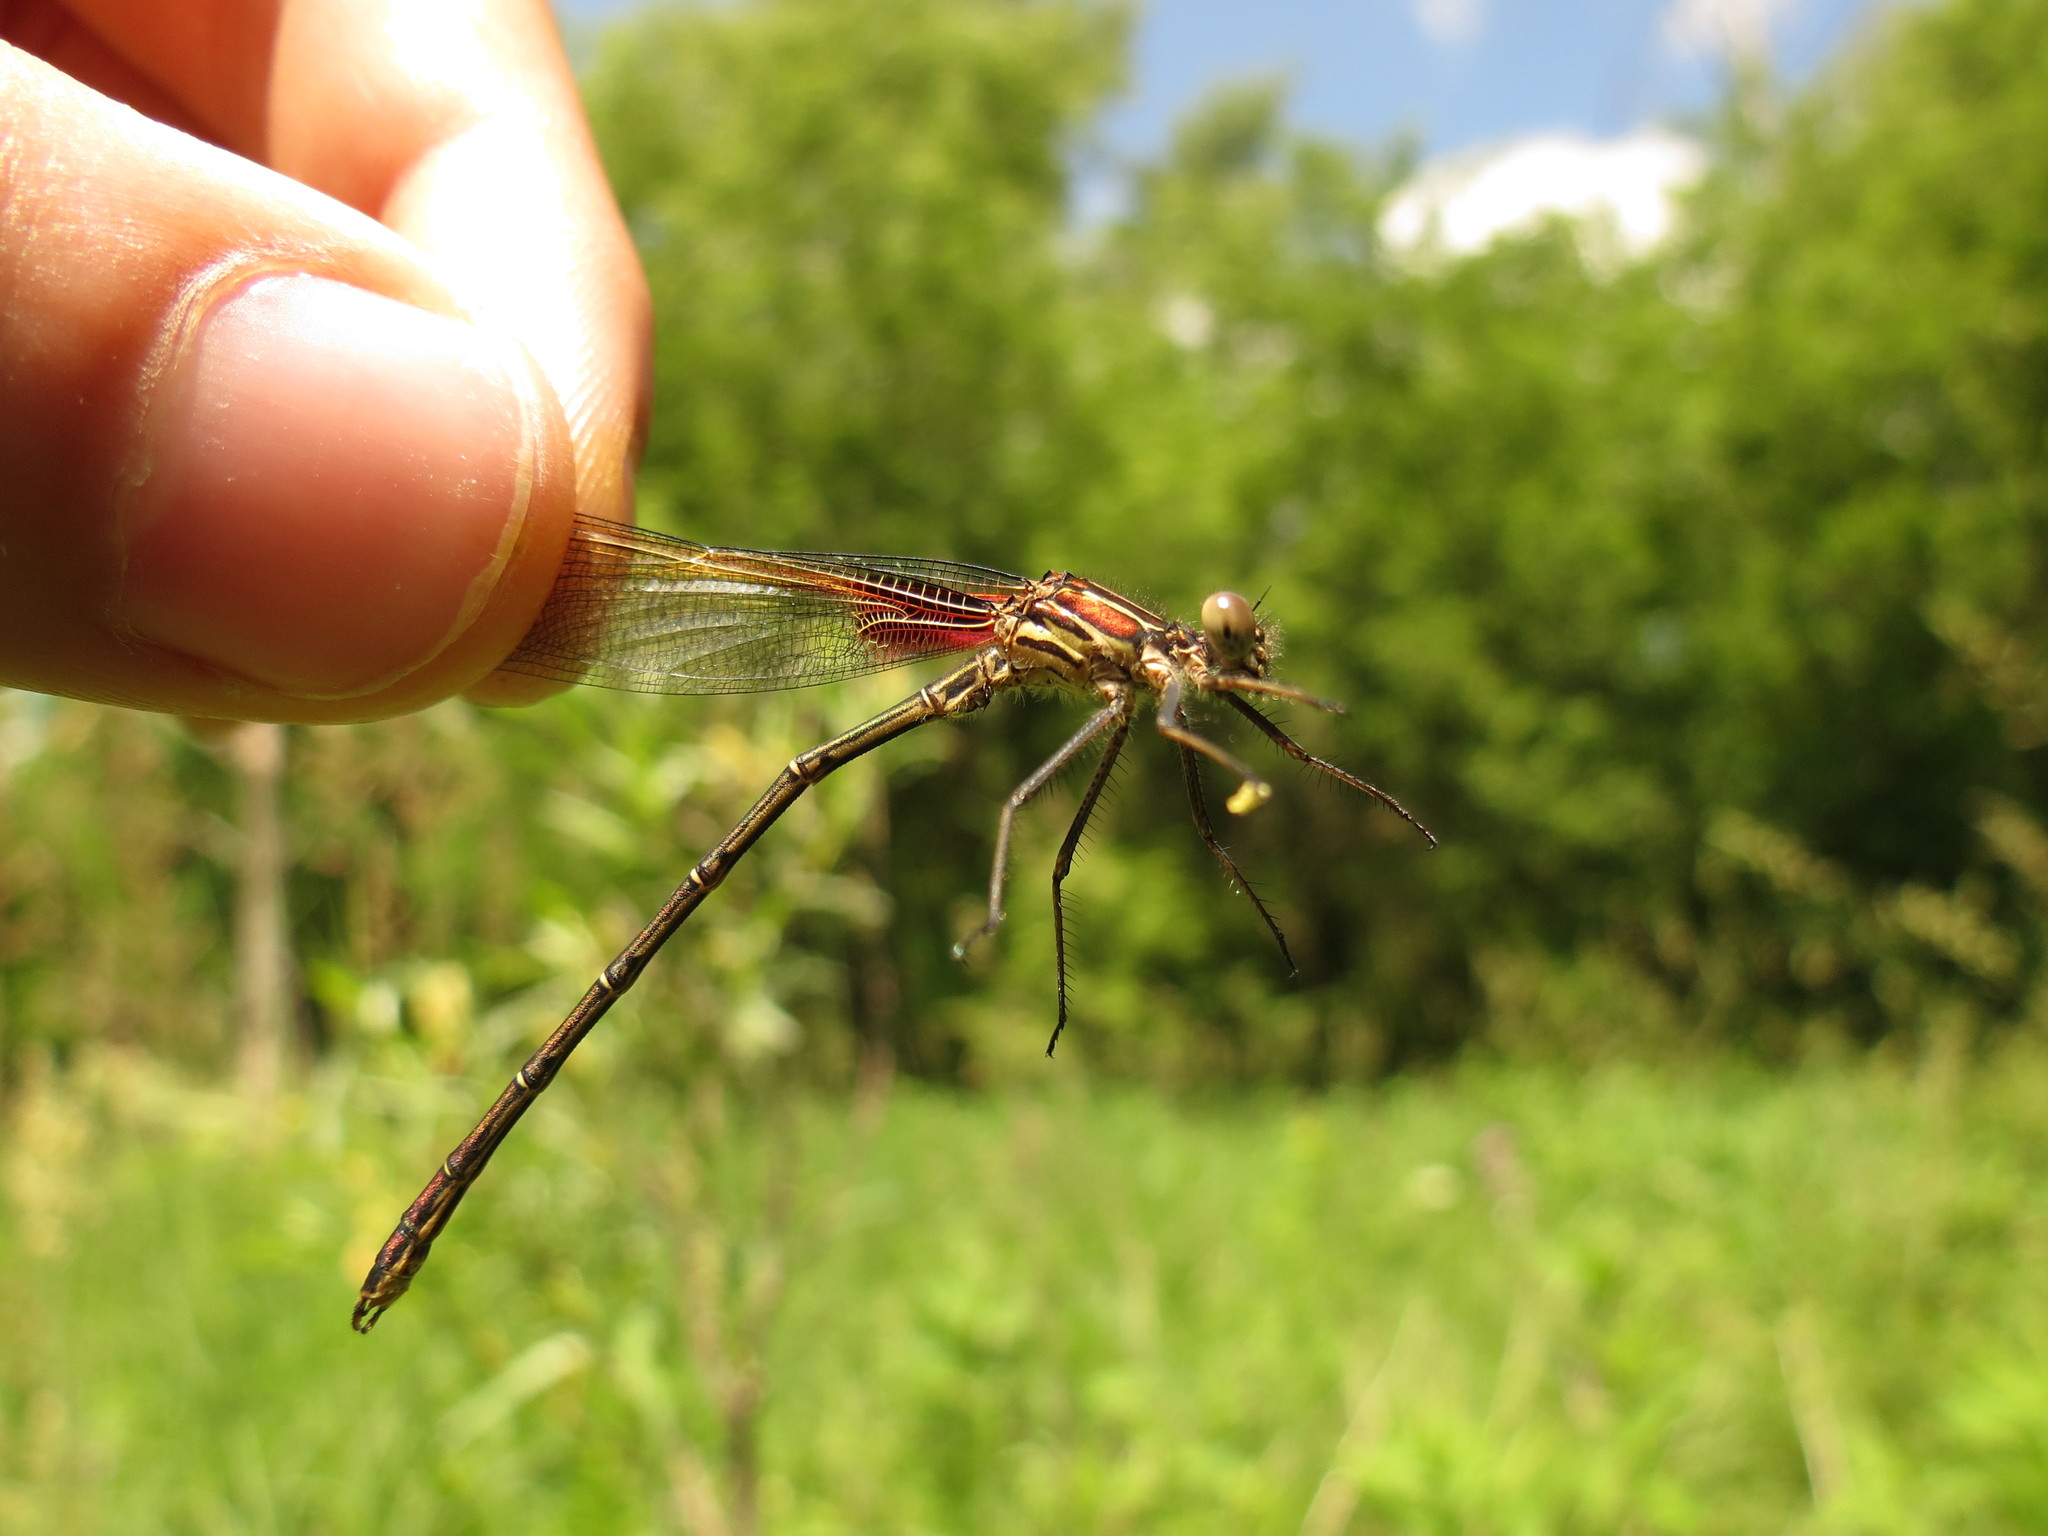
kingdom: Animalia
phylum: Arthropoda
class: Insecta
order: Odonata
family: Calopterygidae
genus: Hetaerina
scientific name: Hetaerina americana
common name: American rubyspot
